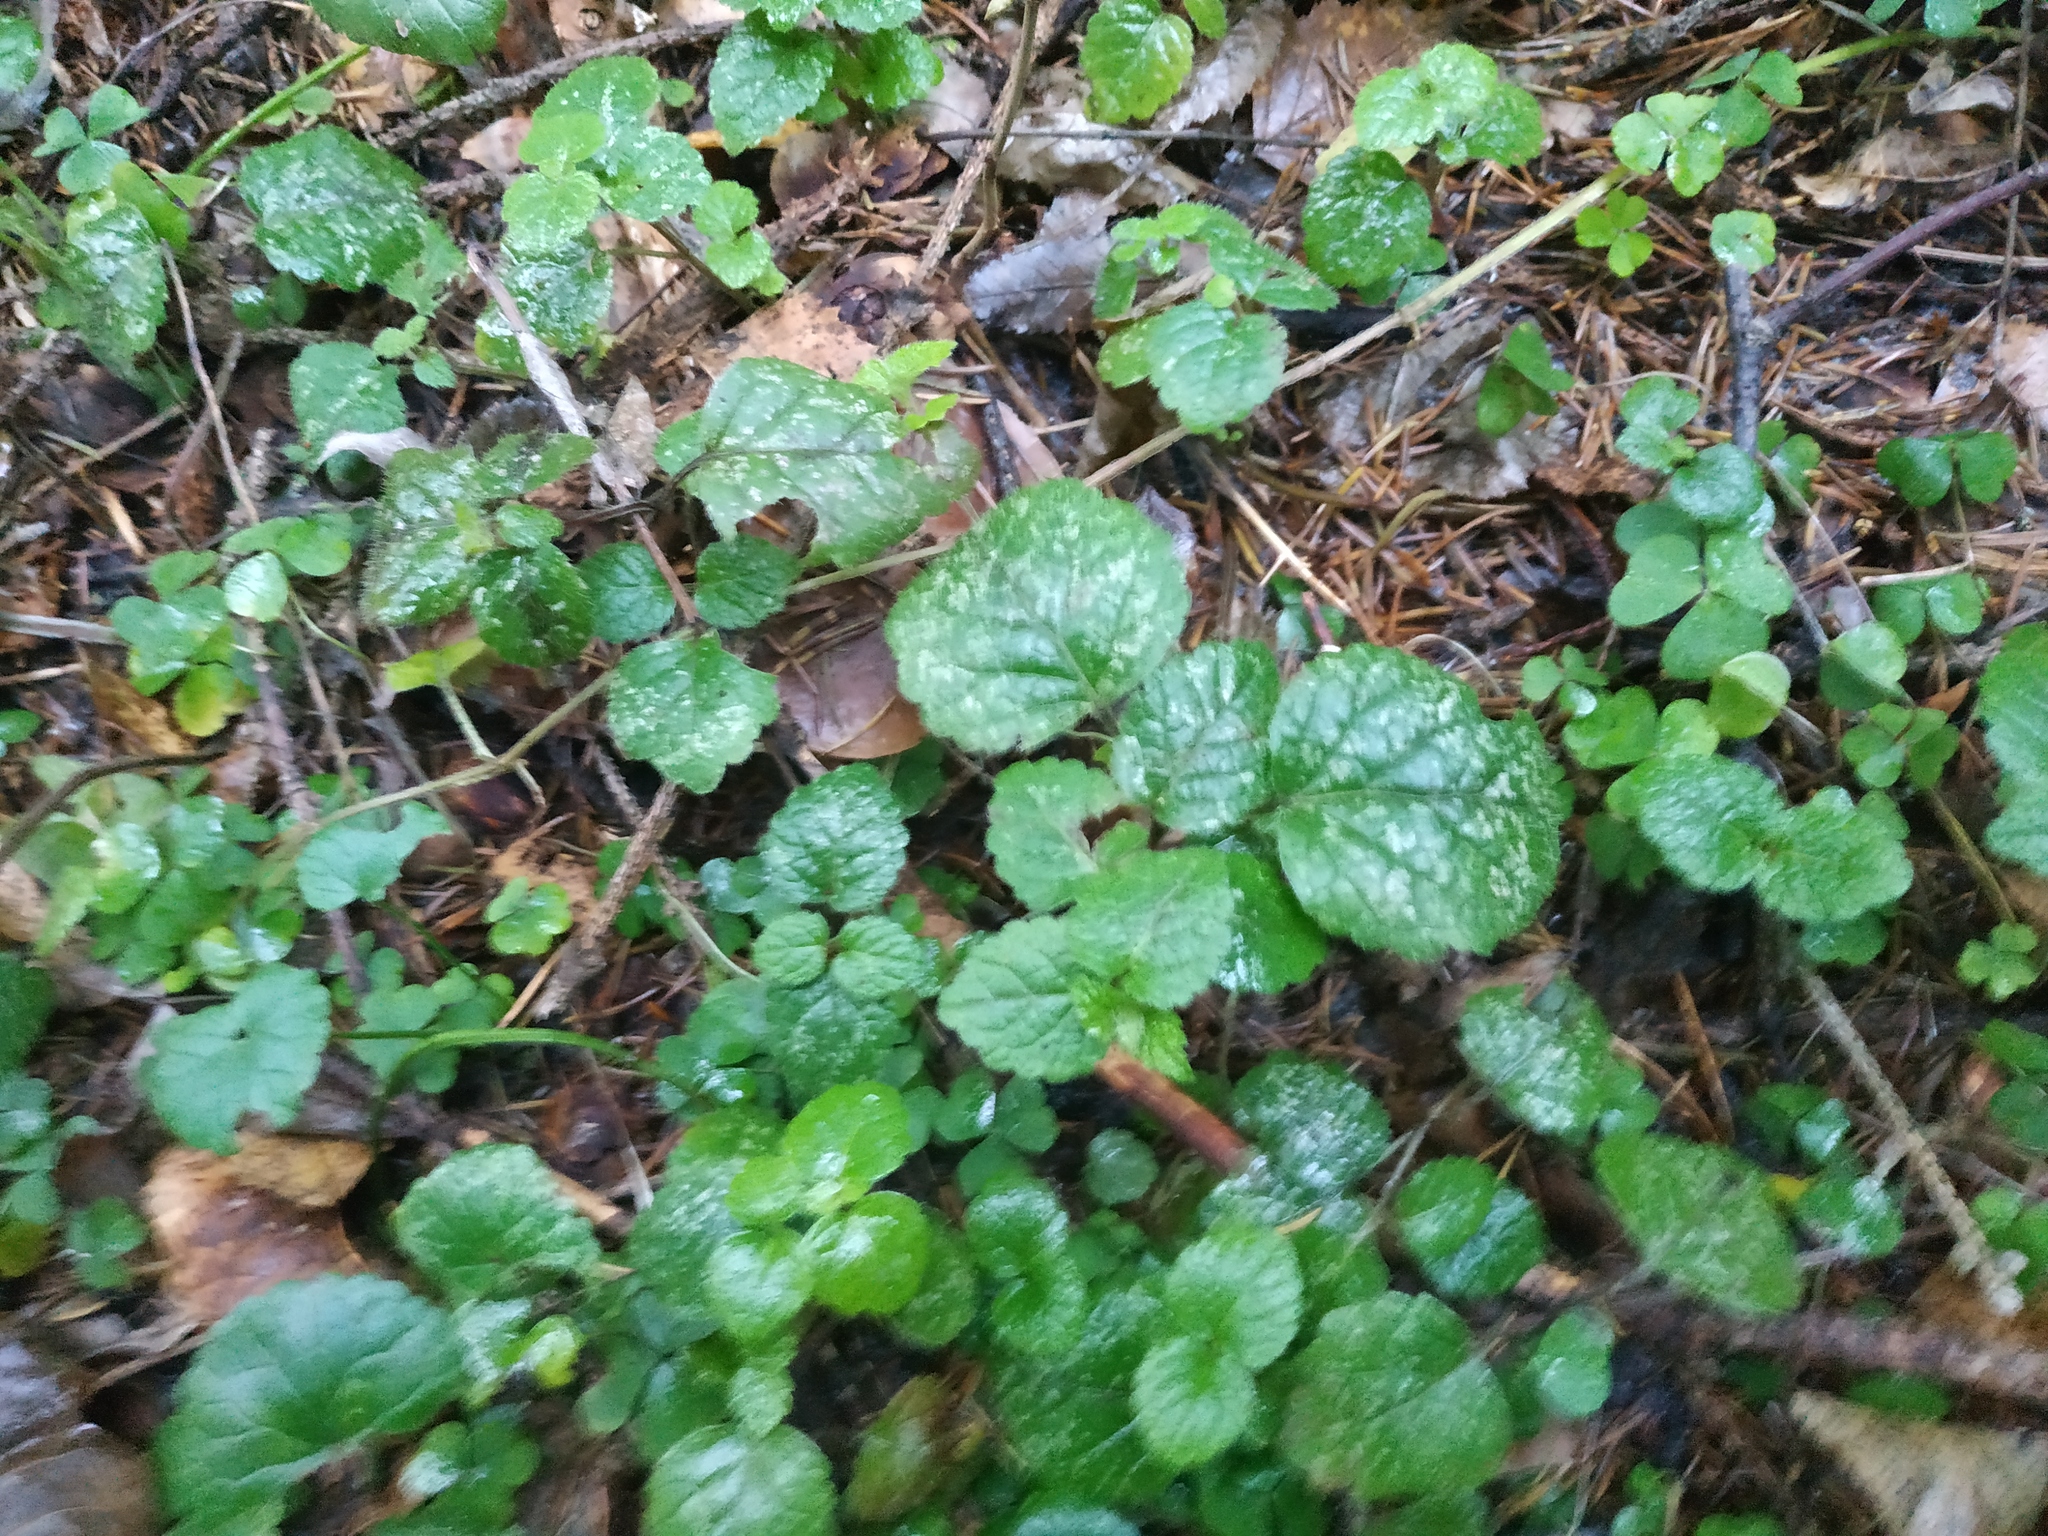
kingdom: Plantae
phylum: Tracheophyta
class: Magnoliopsida
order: Lamiales
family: Lamiaceae
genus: Lamium
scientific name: Lamium galeobdolon
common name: Yellow archangel
